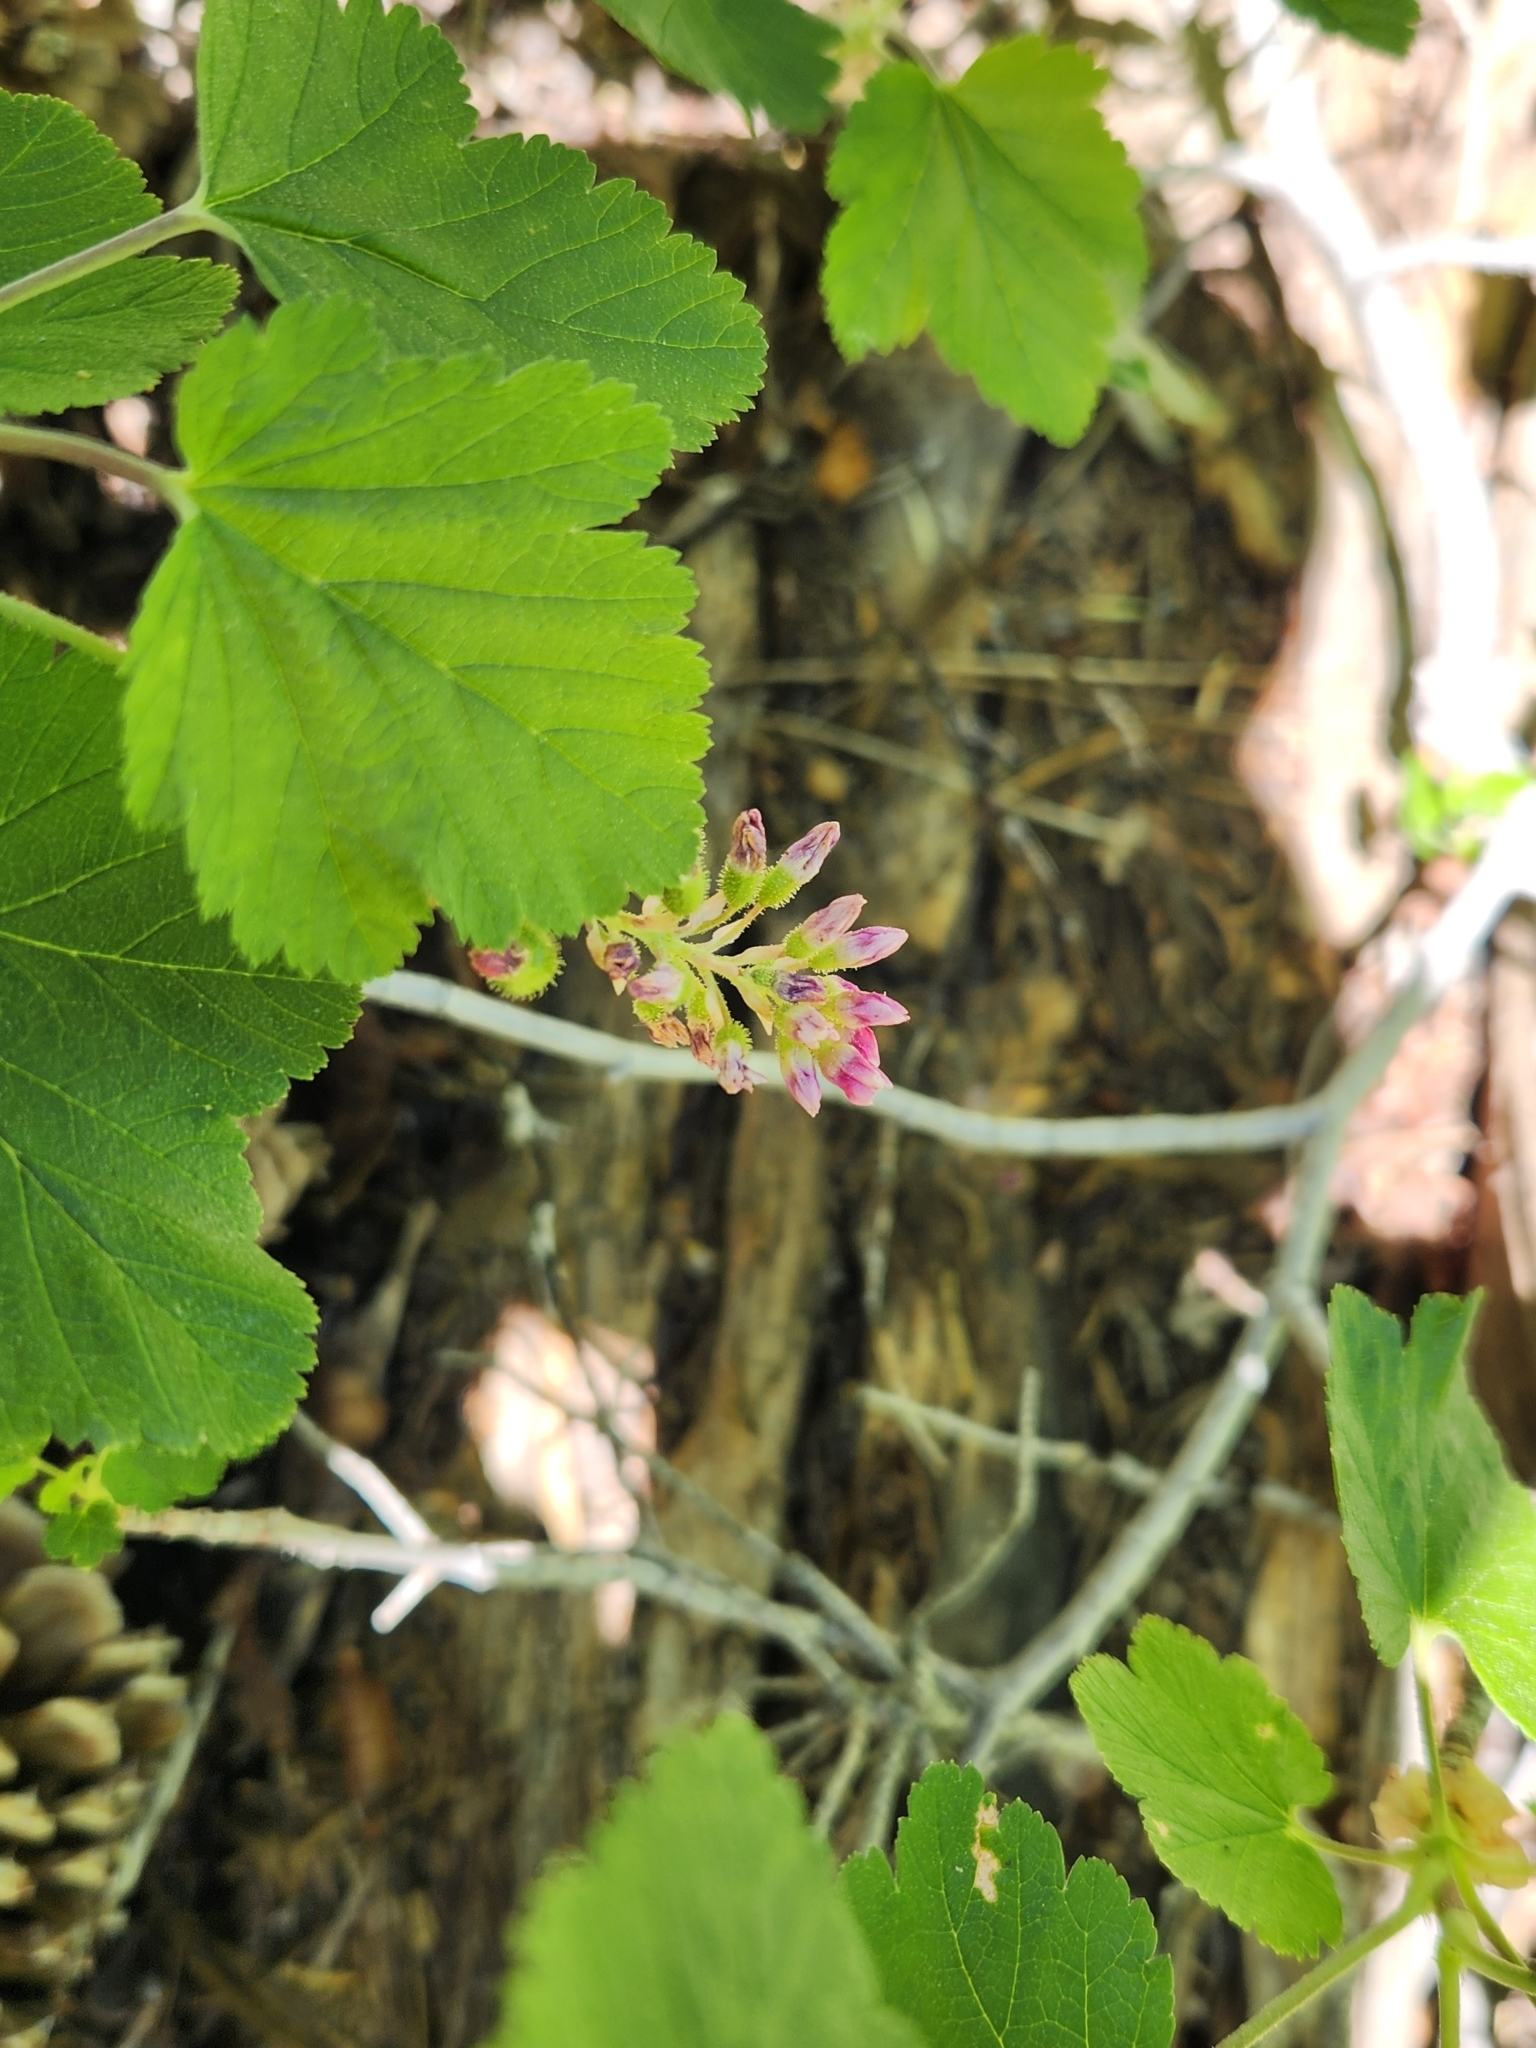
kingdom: Plantae
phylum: Tracheophyta
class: Magnoliopsida
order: Saxifragales
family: Grossulariaceae
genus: Ribes
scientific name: Ribes nevadense
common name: Mountain pink currant
